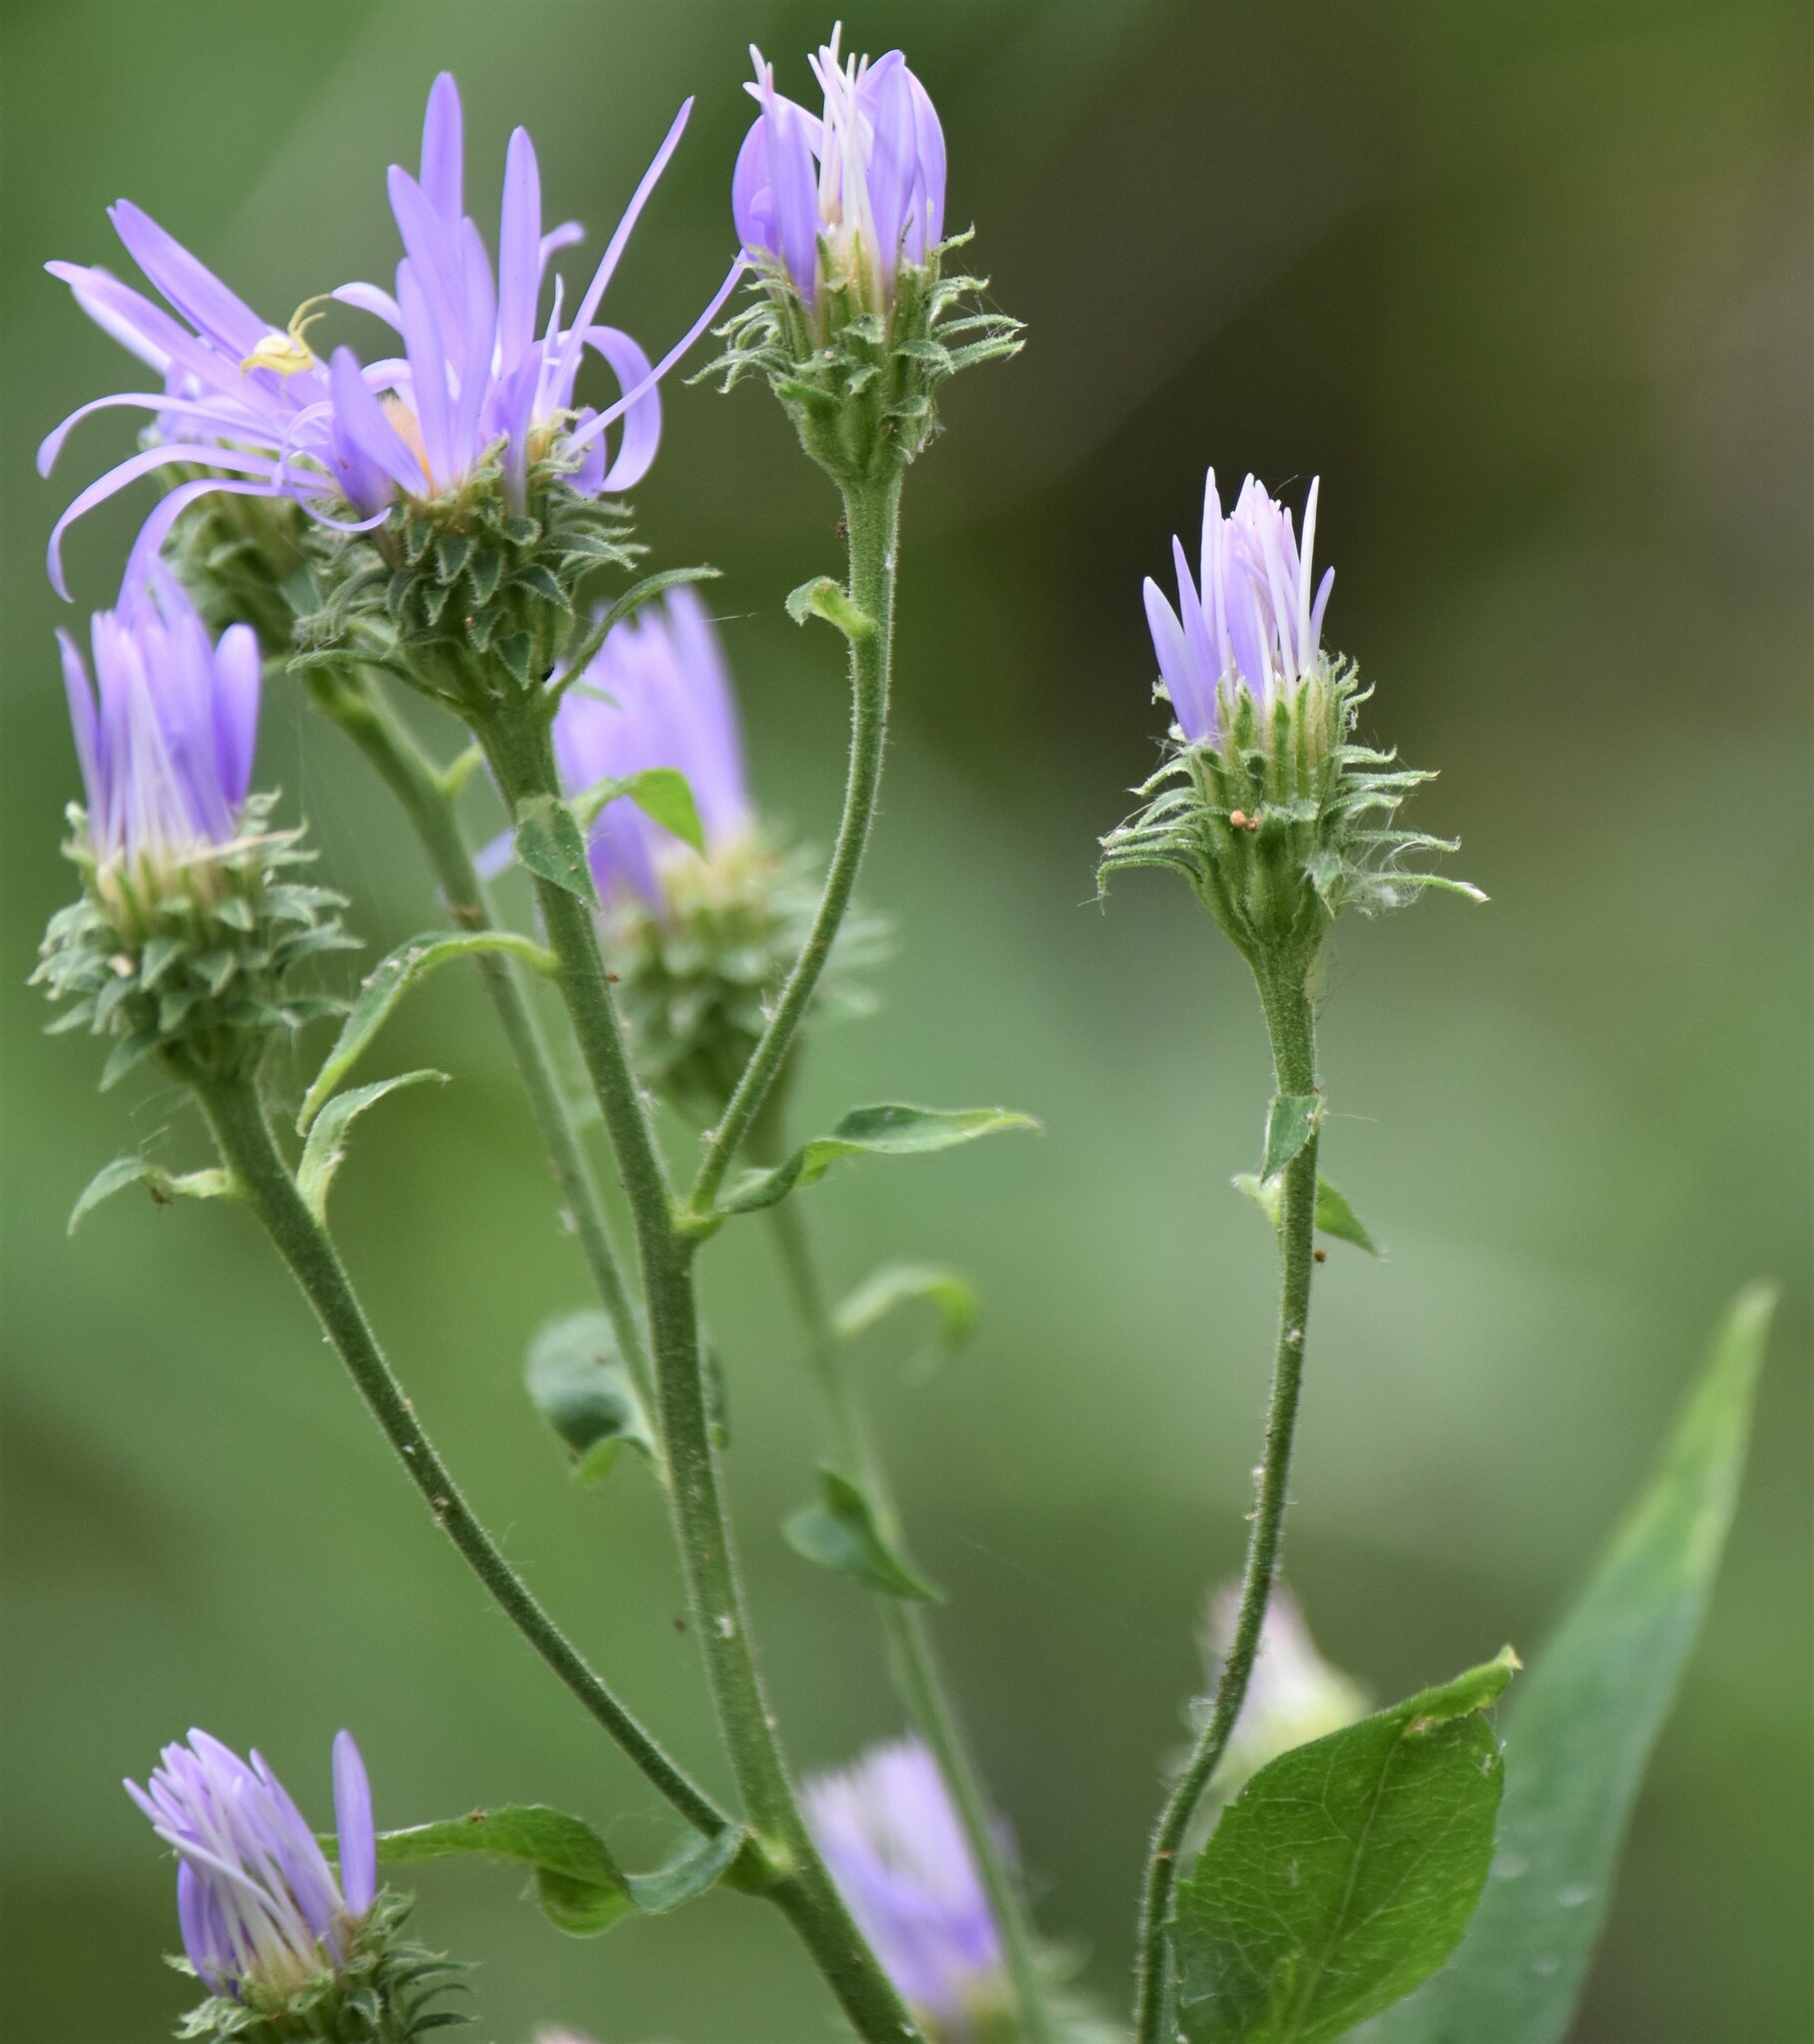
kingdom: Plantae
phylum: Tracheophyta
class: Magnoliopsida
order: Asterales
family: Asteraceae
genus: Eurybia
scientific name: Eurybia conspicua
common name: Showy aster
